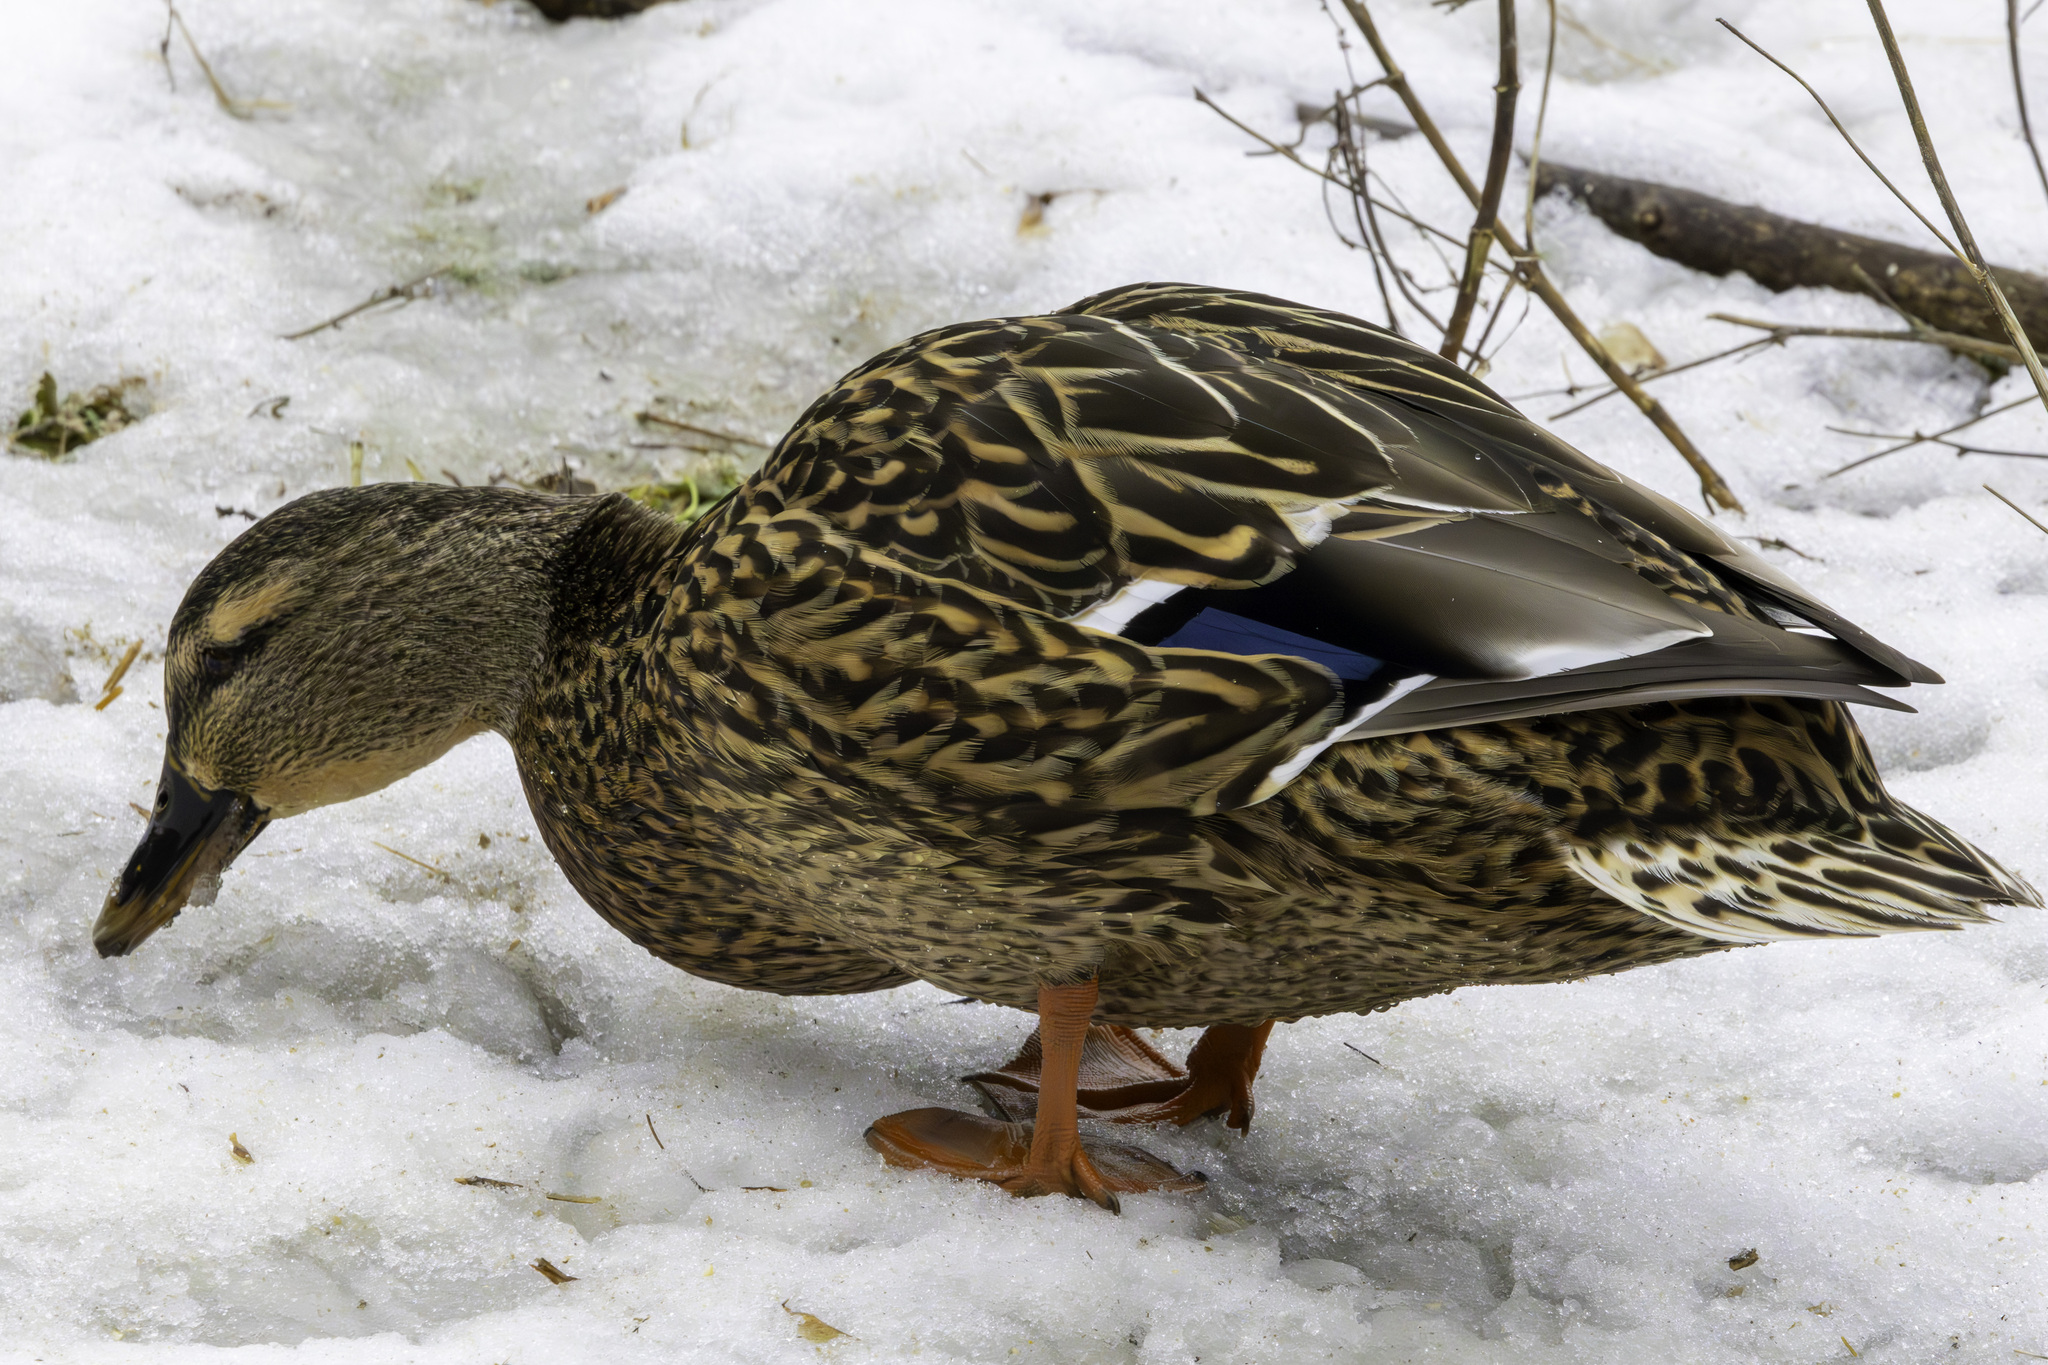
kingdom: Animalia
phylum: Chordata
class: Aves
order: Anseriformes
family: Anatidae
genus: Anas
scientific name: Anas platyrhynchos
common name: Mallard
